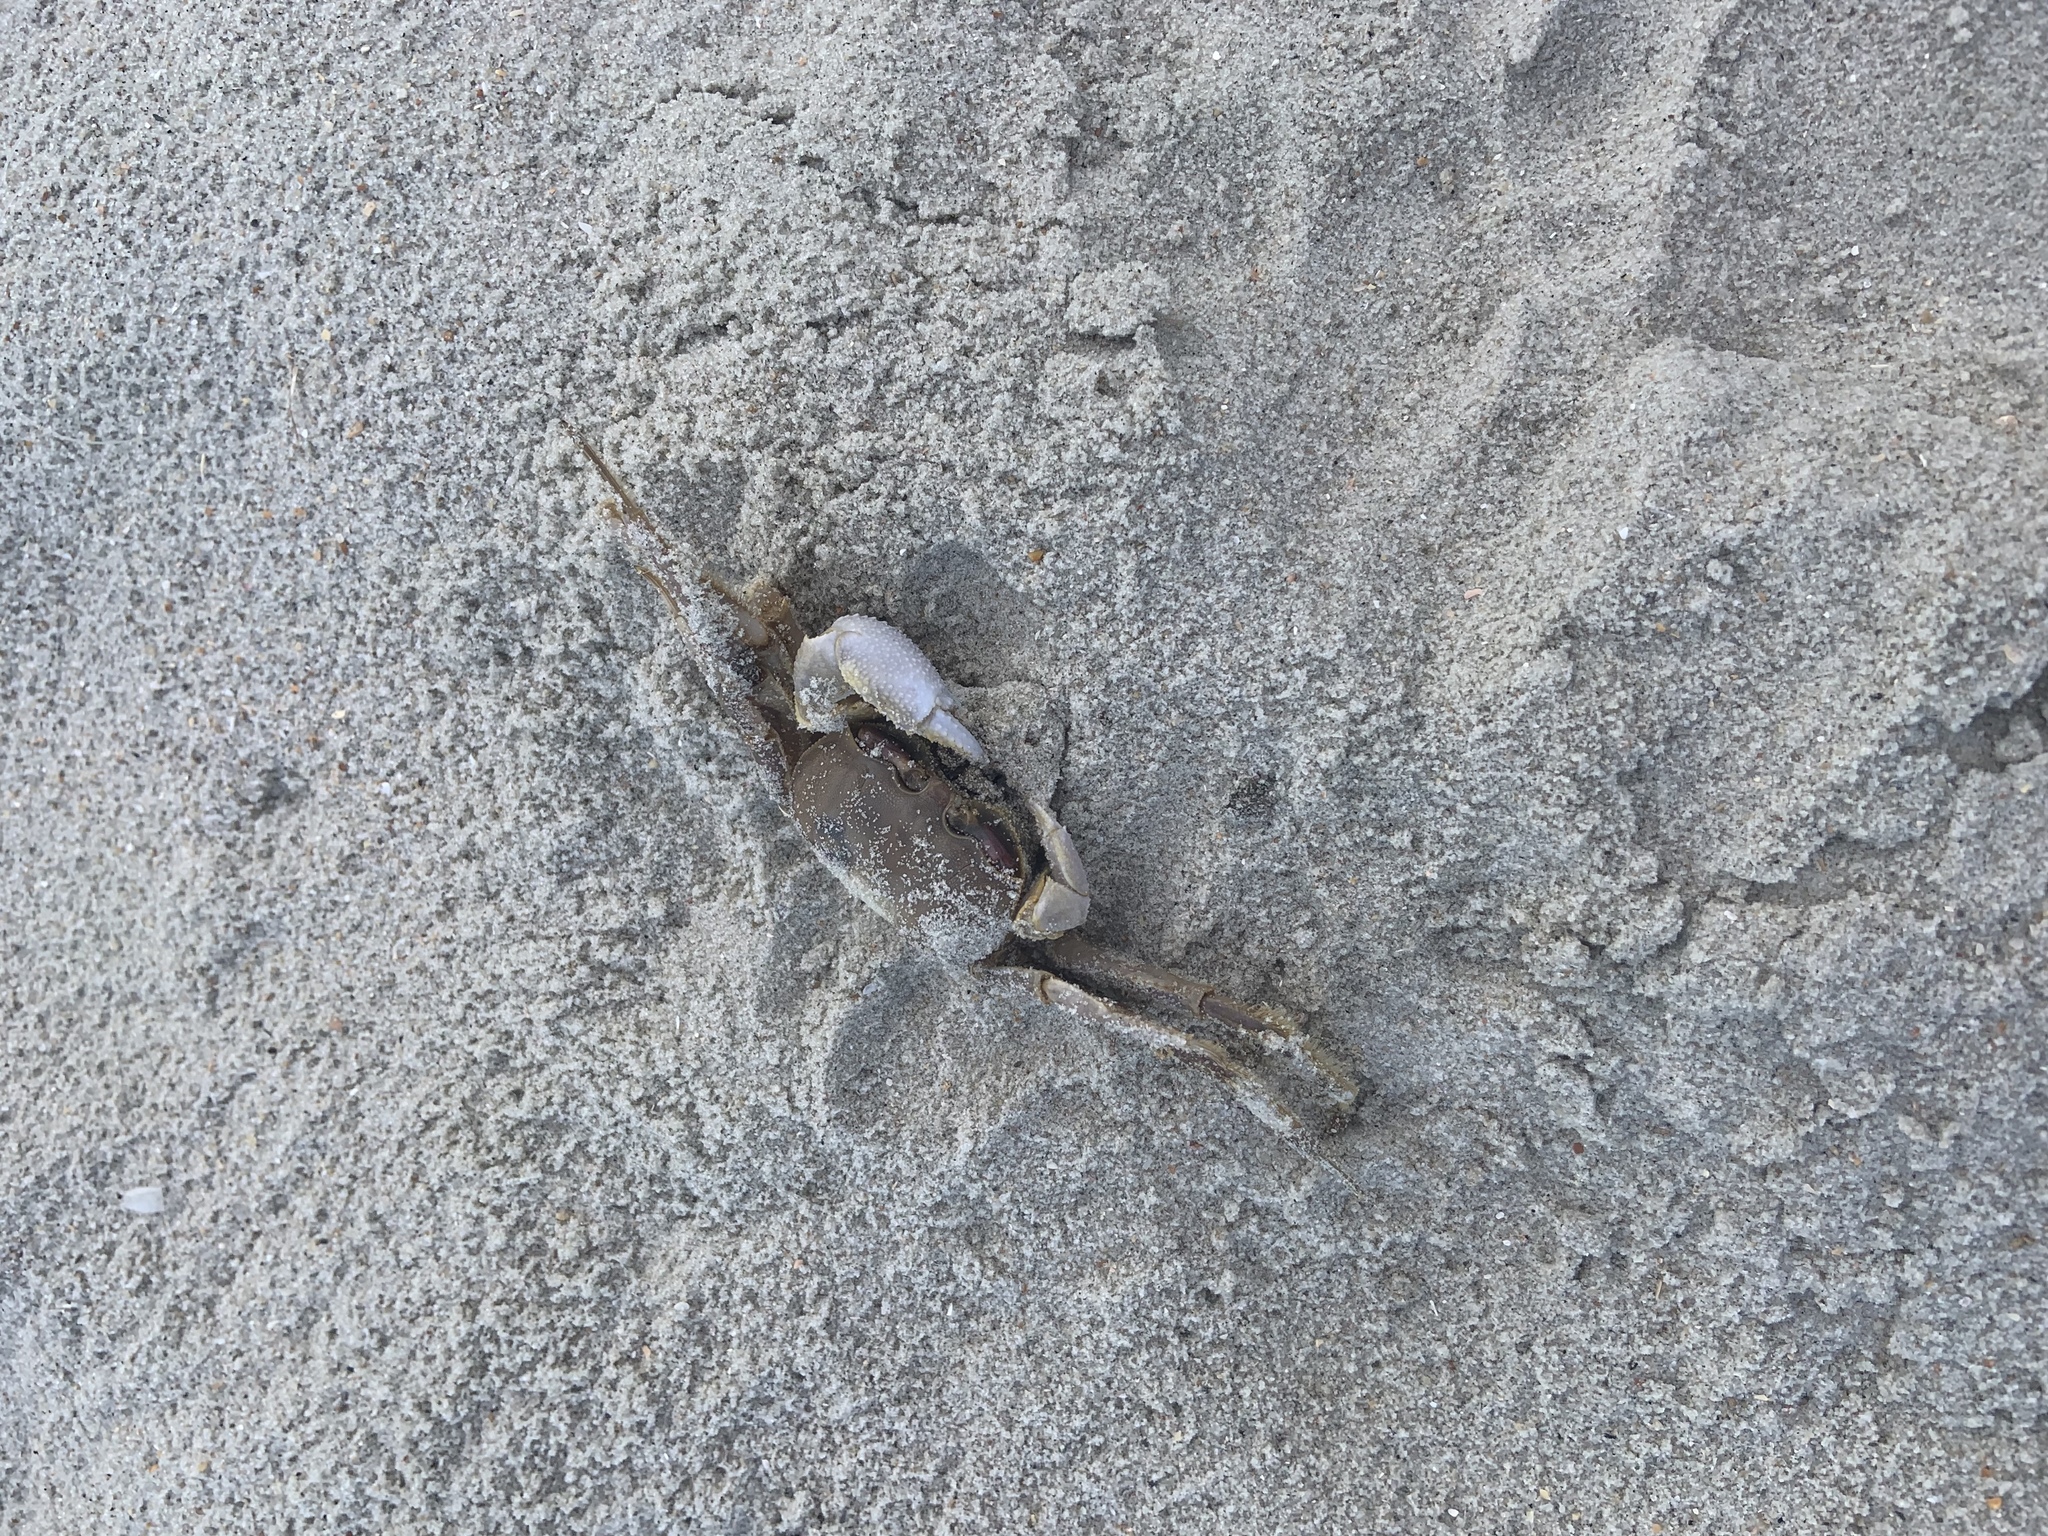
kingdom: Animalia
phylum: Arthropoda
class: Malacostraca
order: Decapoda
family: Ocypodidae
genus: Ocypode
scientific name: Ocypode quadrata
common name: Ghost crab
